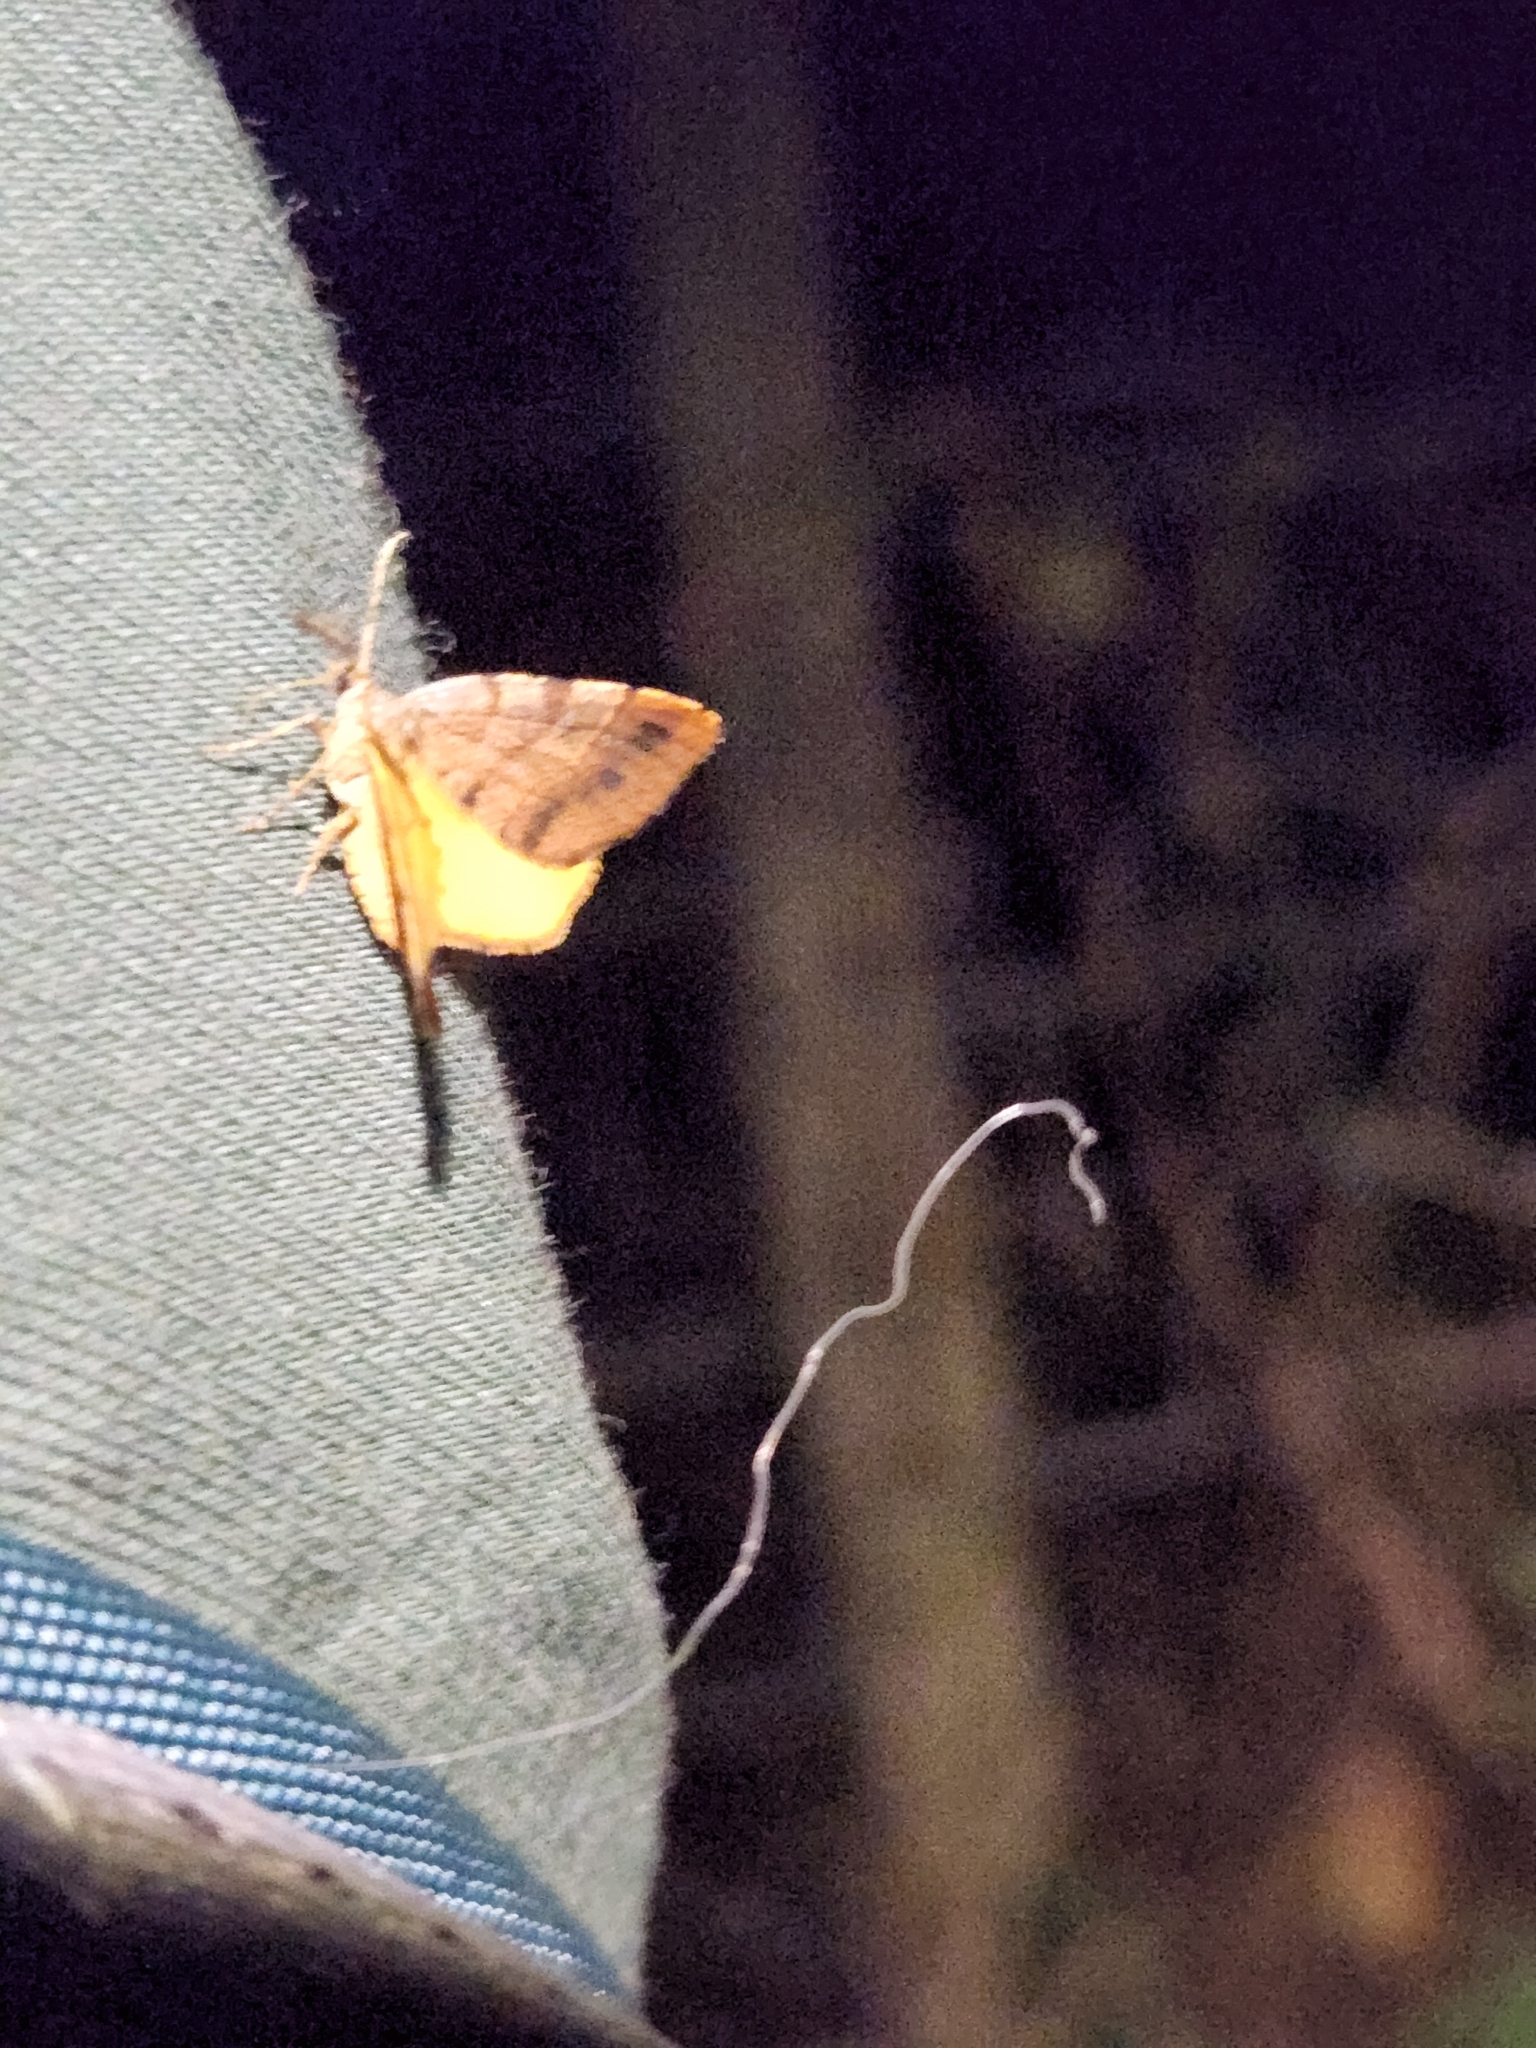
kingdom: Animalia
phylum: Arthropoda
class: Insecta
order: Lepidoptera
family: Geometridae
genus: Mellilla
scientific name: Mellilla xanthometata
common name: Orange wing moth
